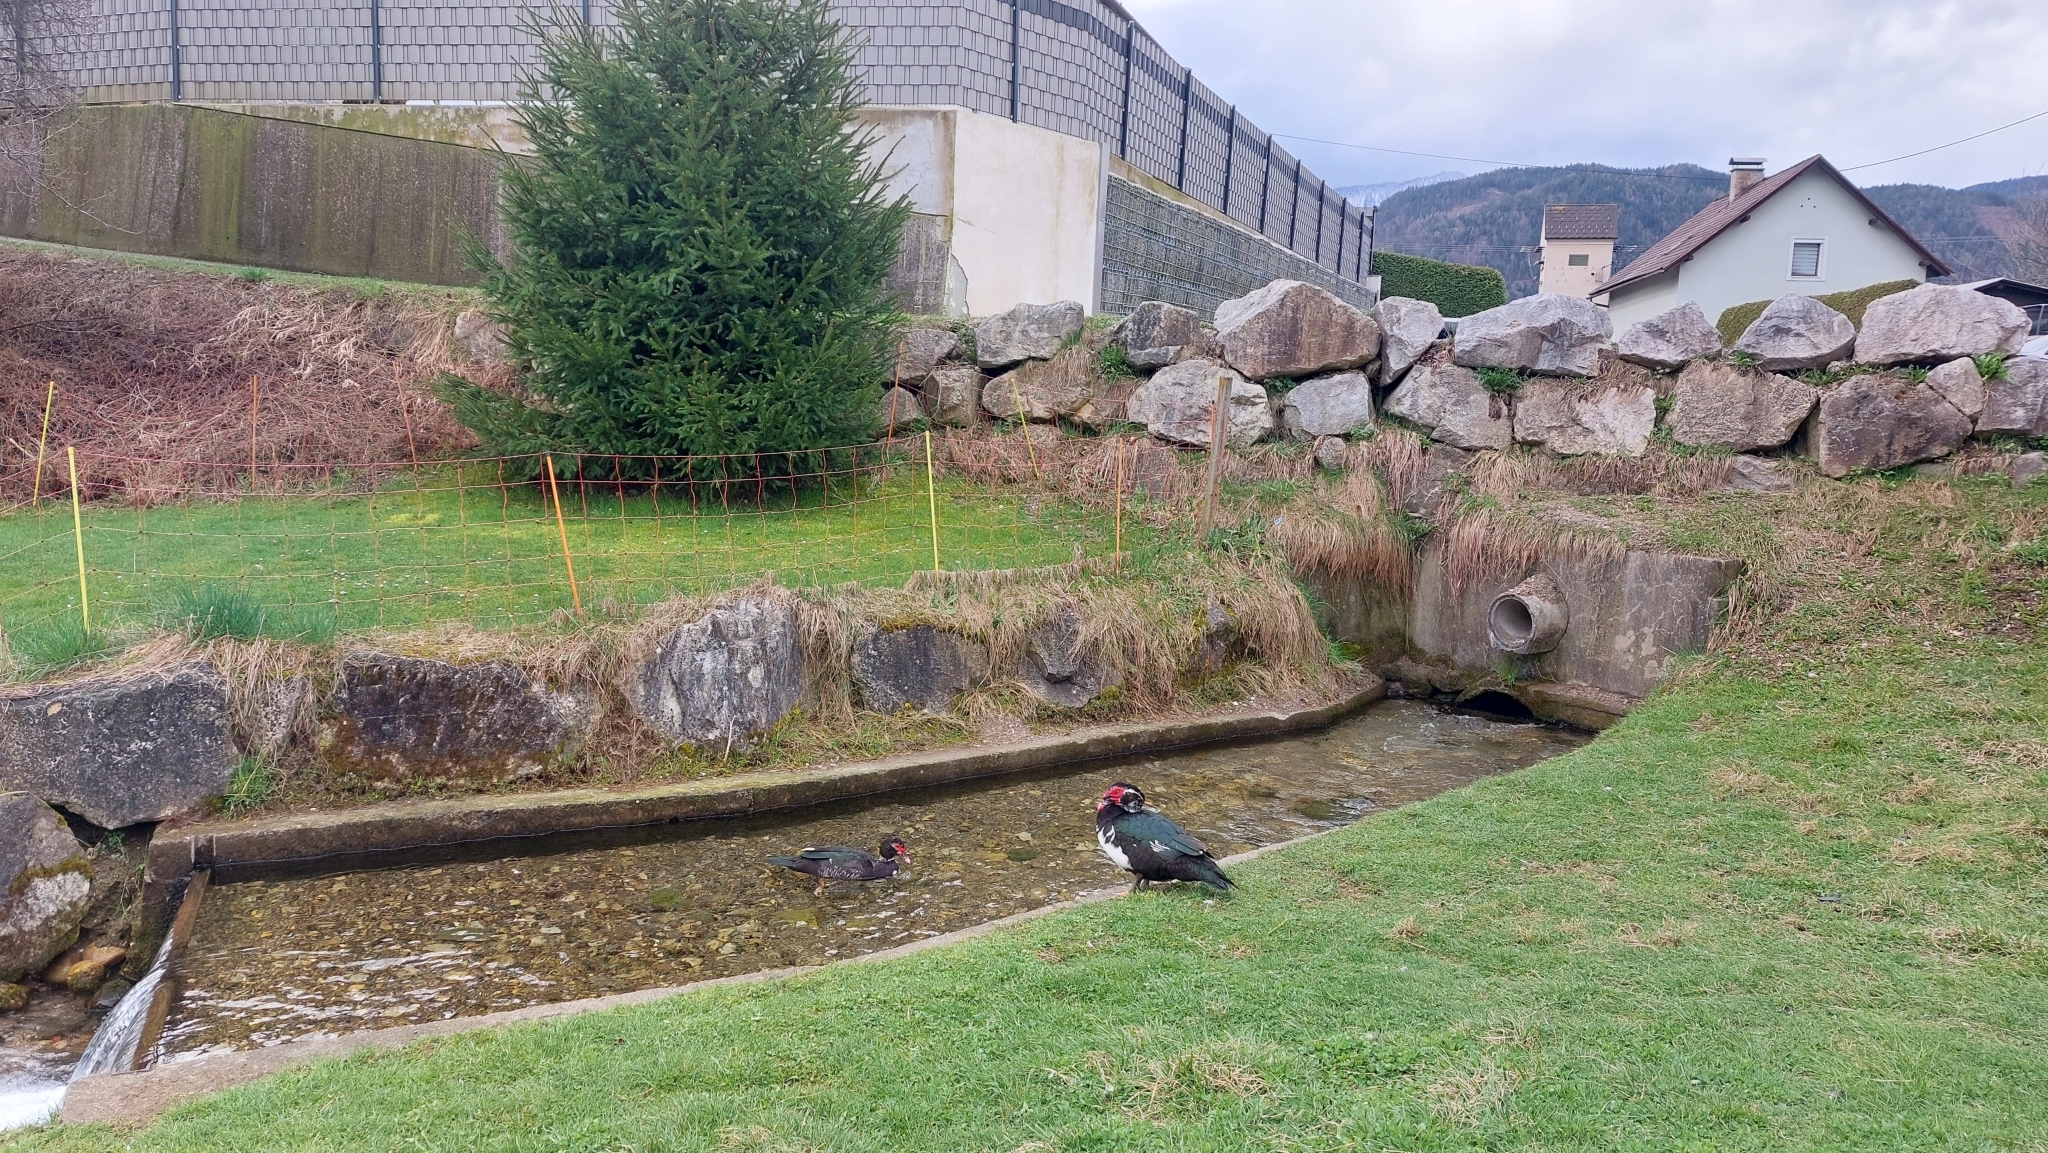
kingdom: Animalia
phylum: Chordata
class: Aves
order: Anseriformes
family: Anatidae
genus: Cairina
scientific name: Cairina moschata
